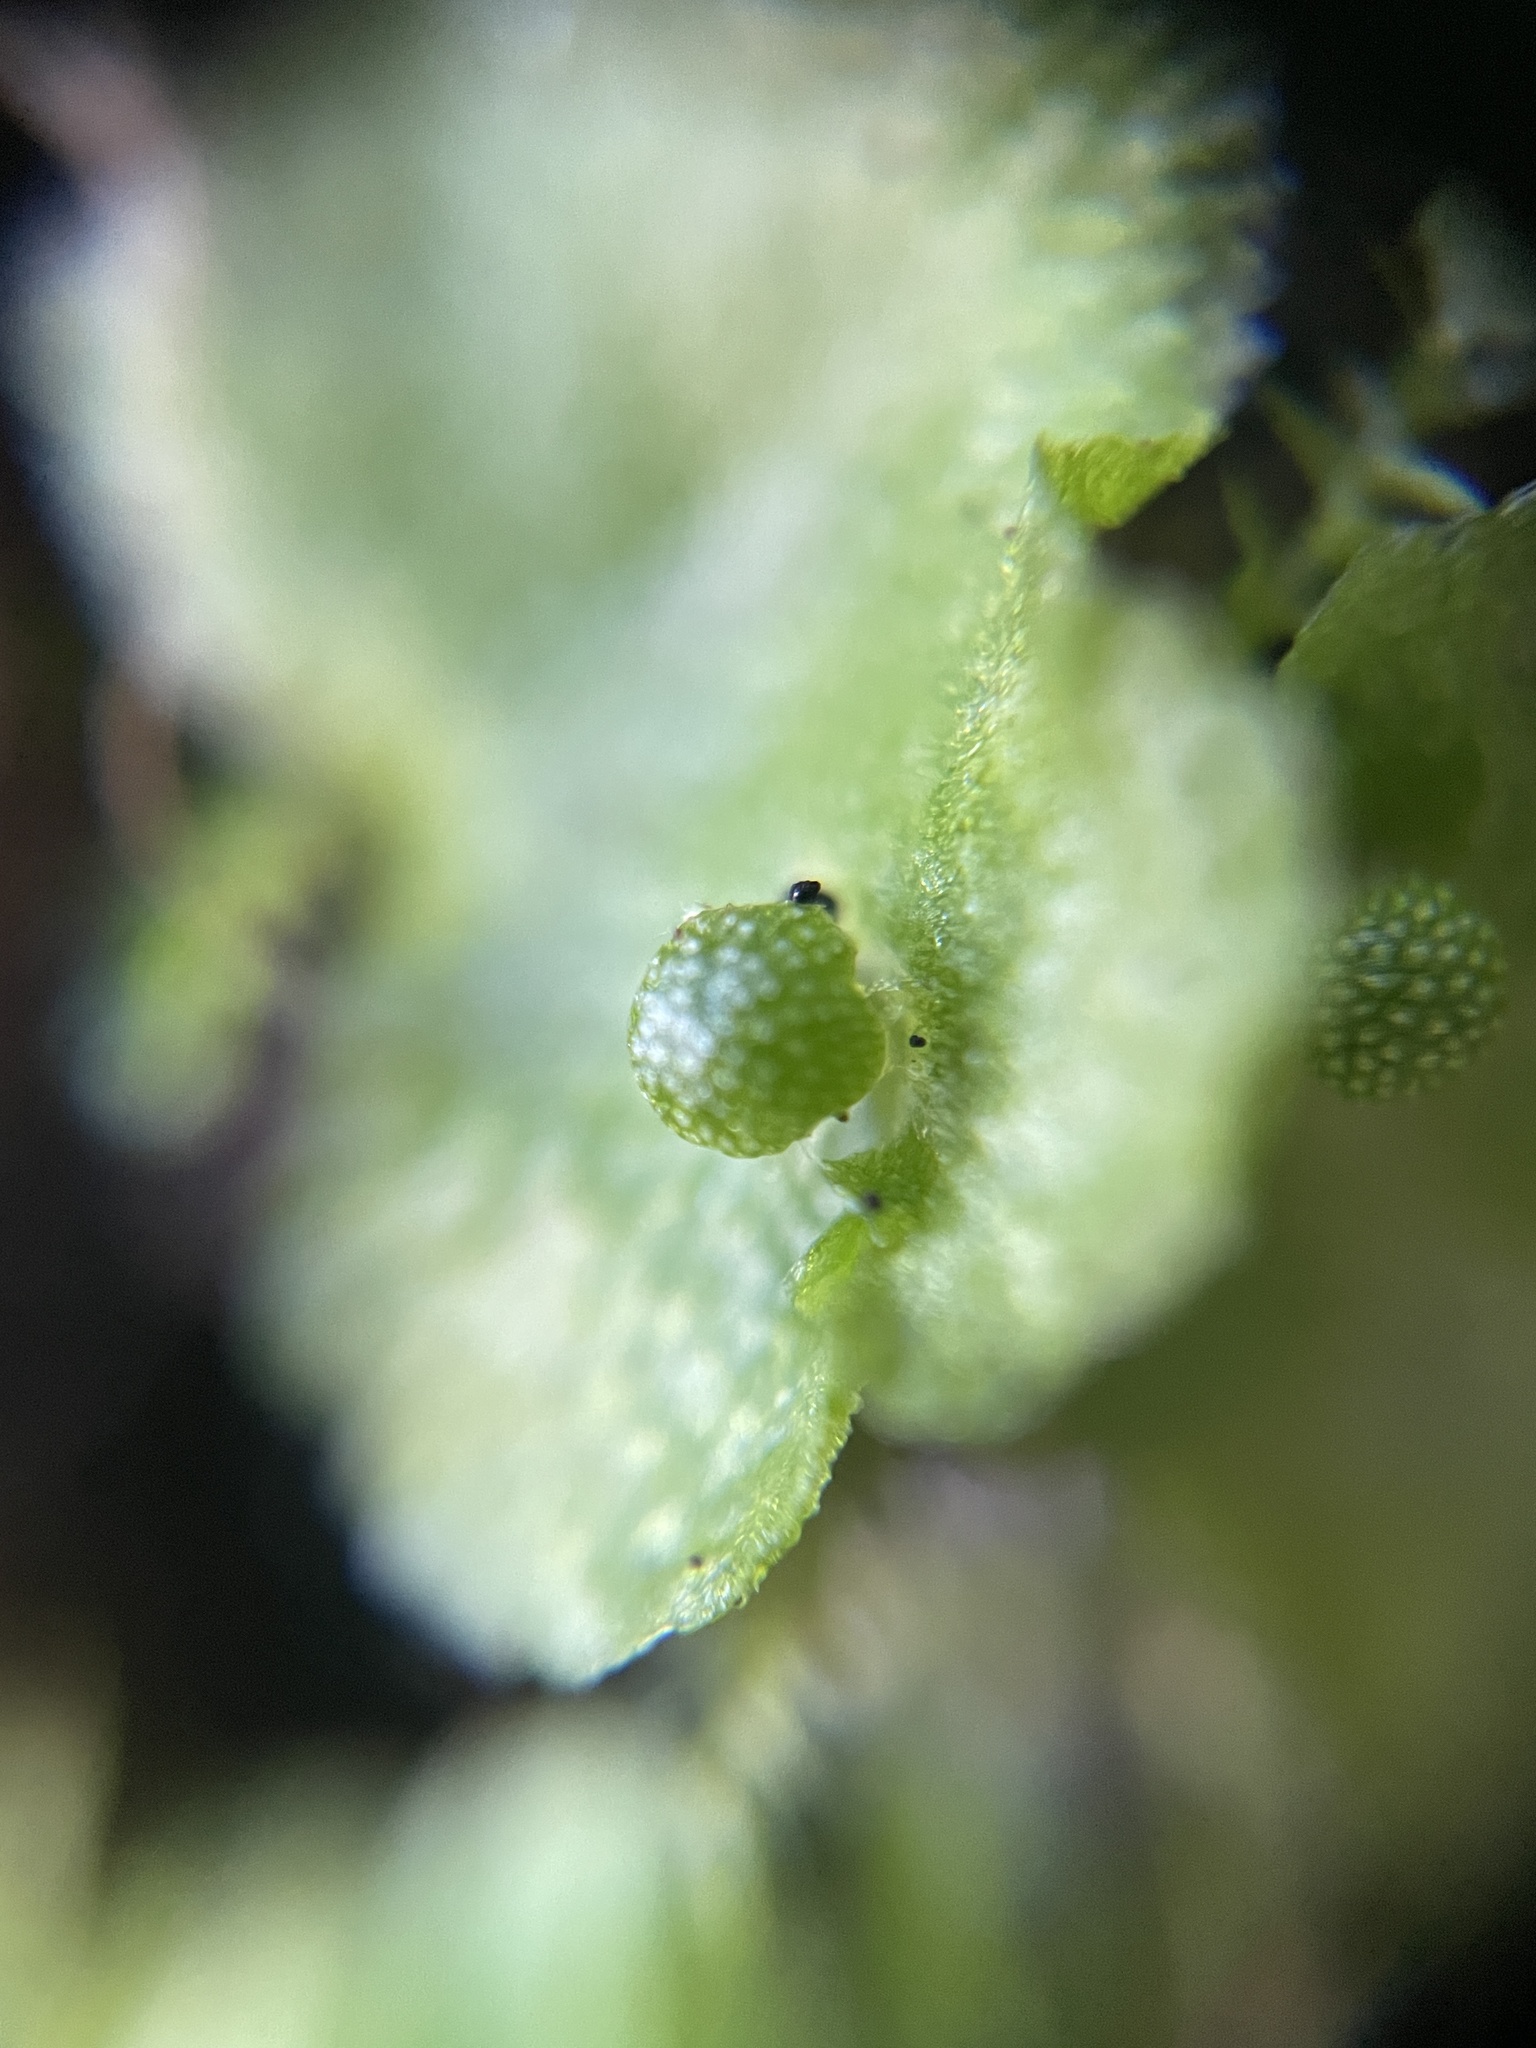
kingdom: Plantae
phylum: Marchantiophyta
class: Marchantiopsida
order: Marchantiales
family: Aytoniaceae
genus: Asterella
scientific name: Asterella californica
